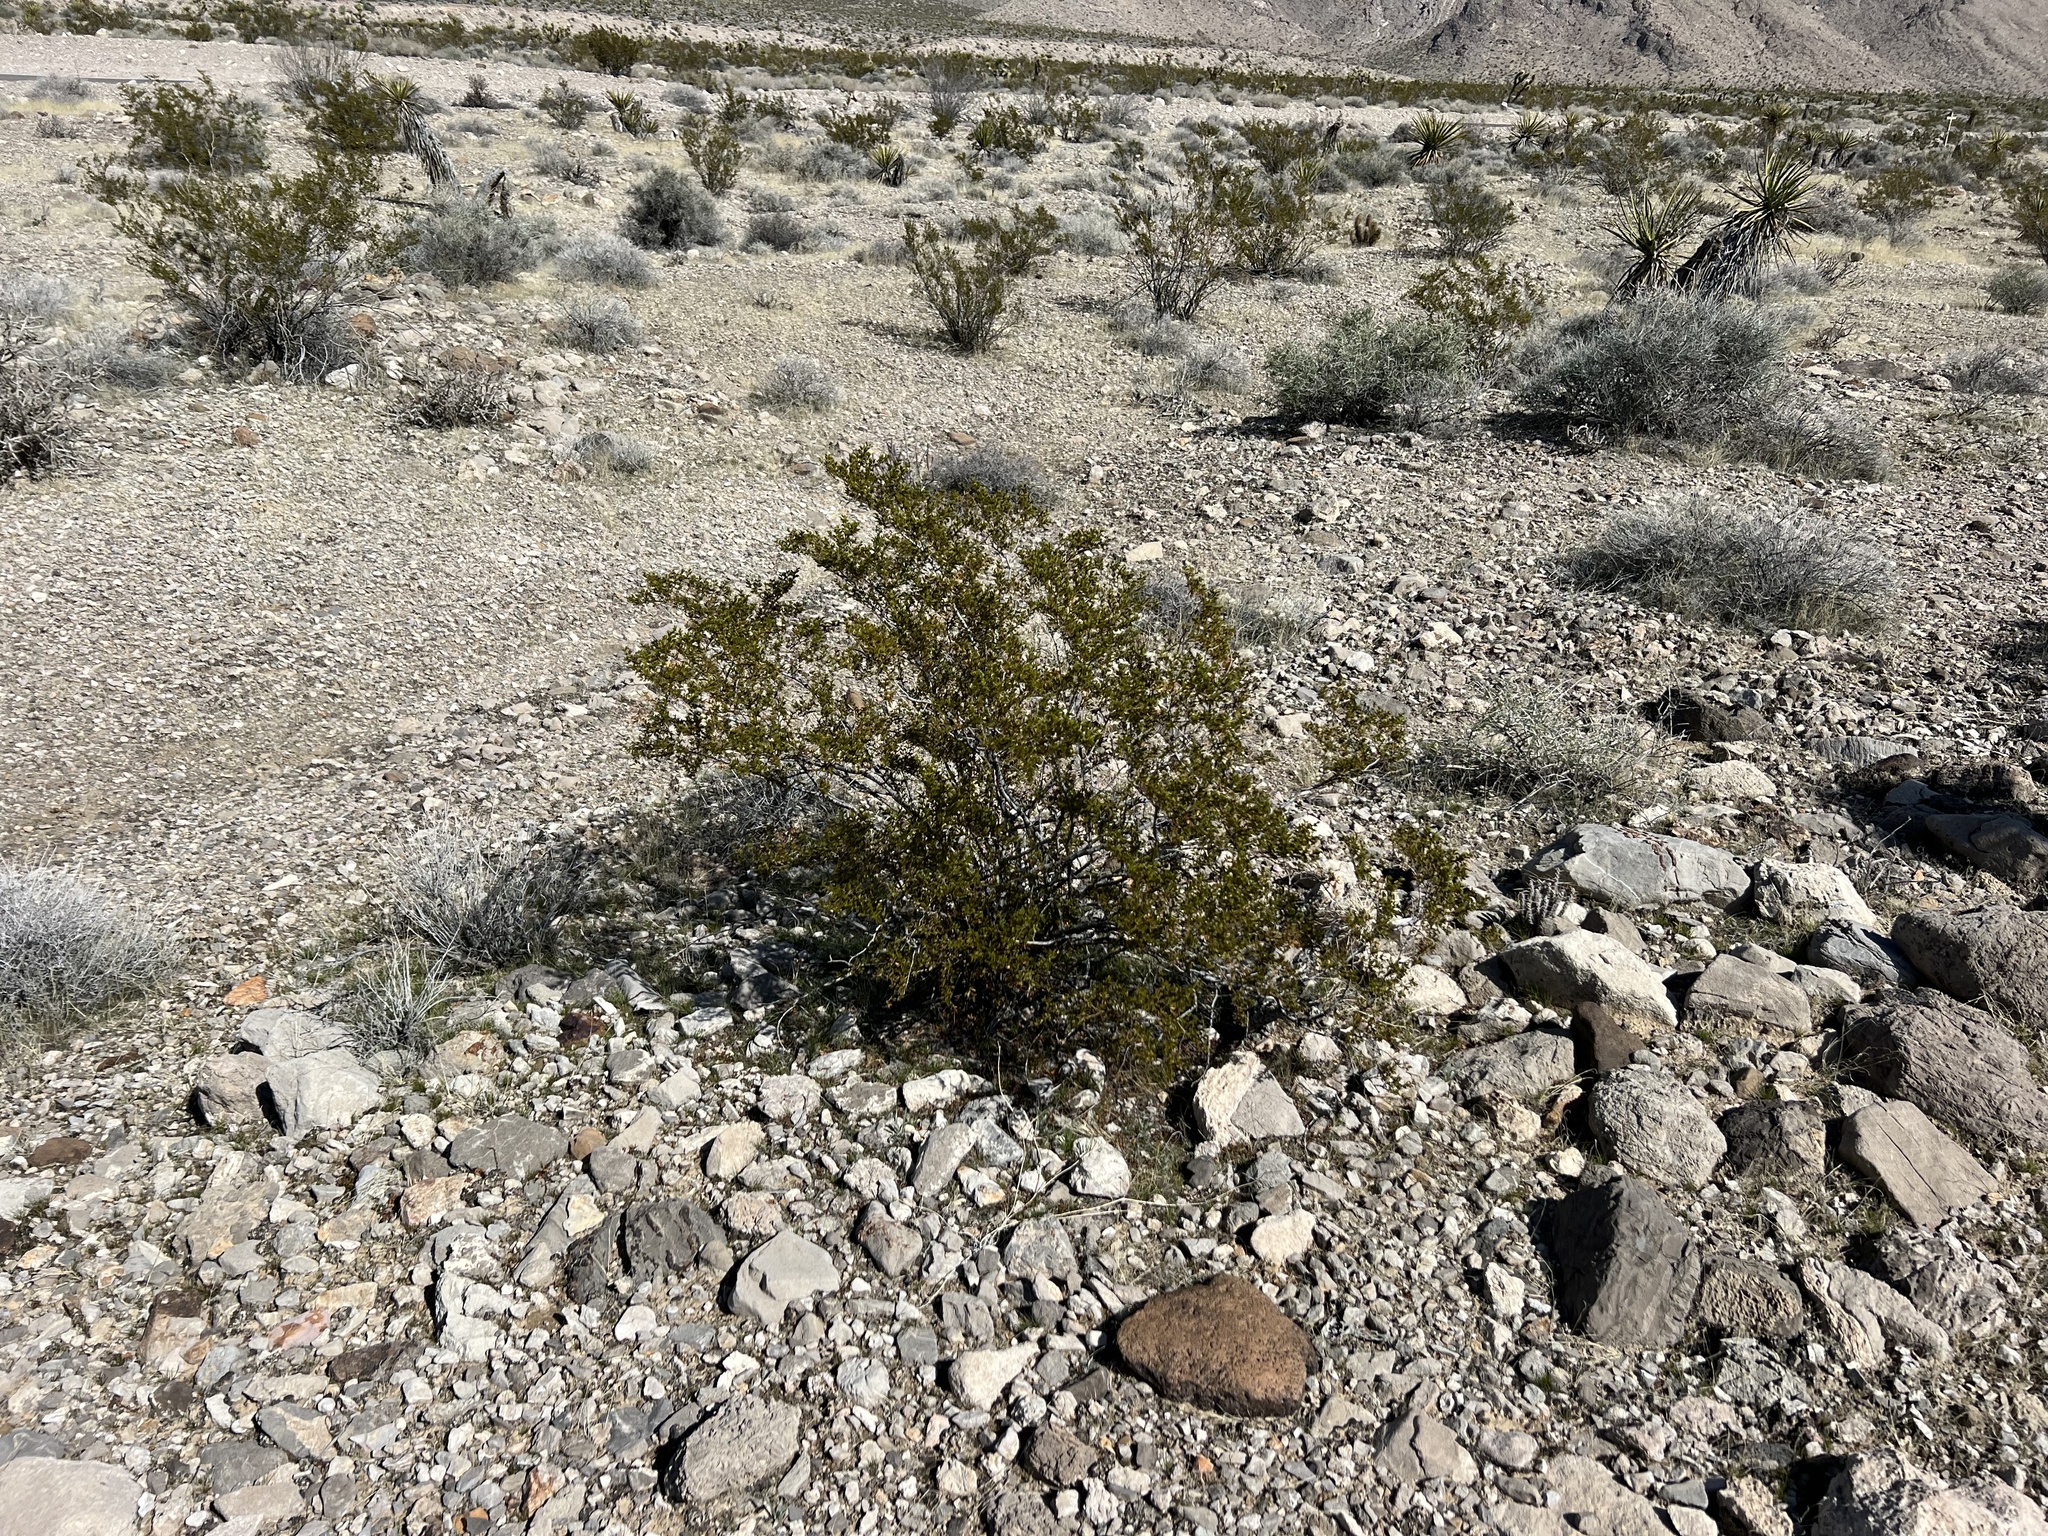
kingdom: Plantae
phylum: Tracheophyta
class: Magnoliopsida
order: Zygophyllales
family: Zygophyllaceae
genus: Larrea
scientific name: Larrea tridentata
